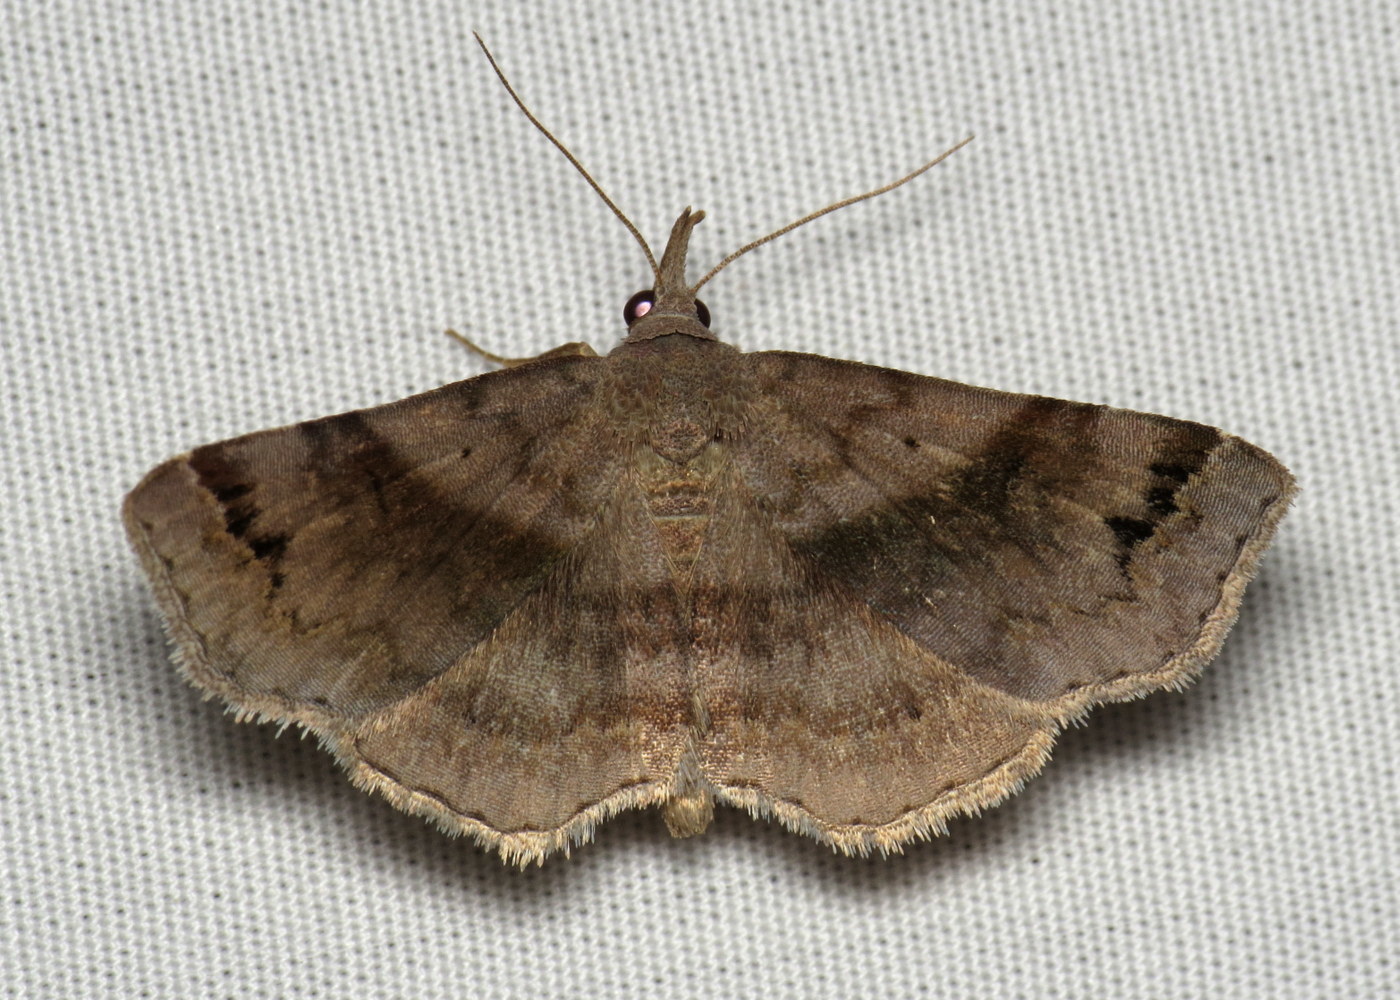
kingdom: Animalia
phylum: Arthropoda
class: Insecta
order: Lepidoptera
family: Erebidae
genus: Spargaloma
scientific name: Spargaloma sexpunctata
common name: Six-spotted gray
